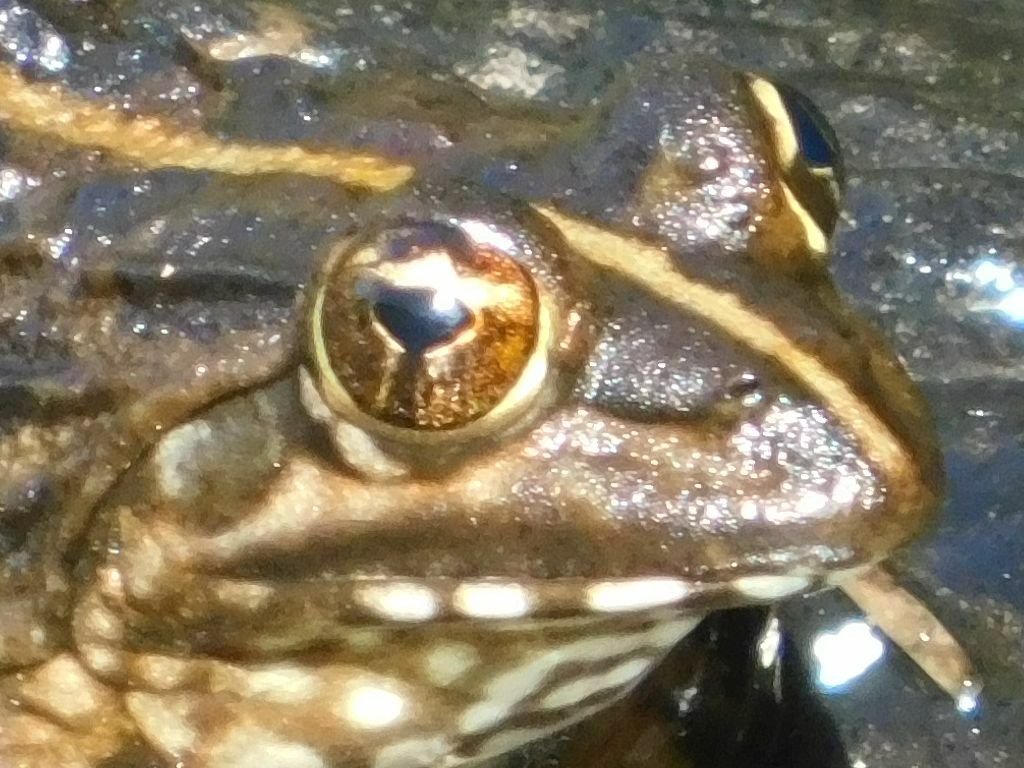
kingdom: Animalia
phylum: Chordata
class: Amphibia
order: Anura
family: Pyxicephalidae
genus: Amietia
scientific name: Amietia fuscigula
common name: Cape rana
